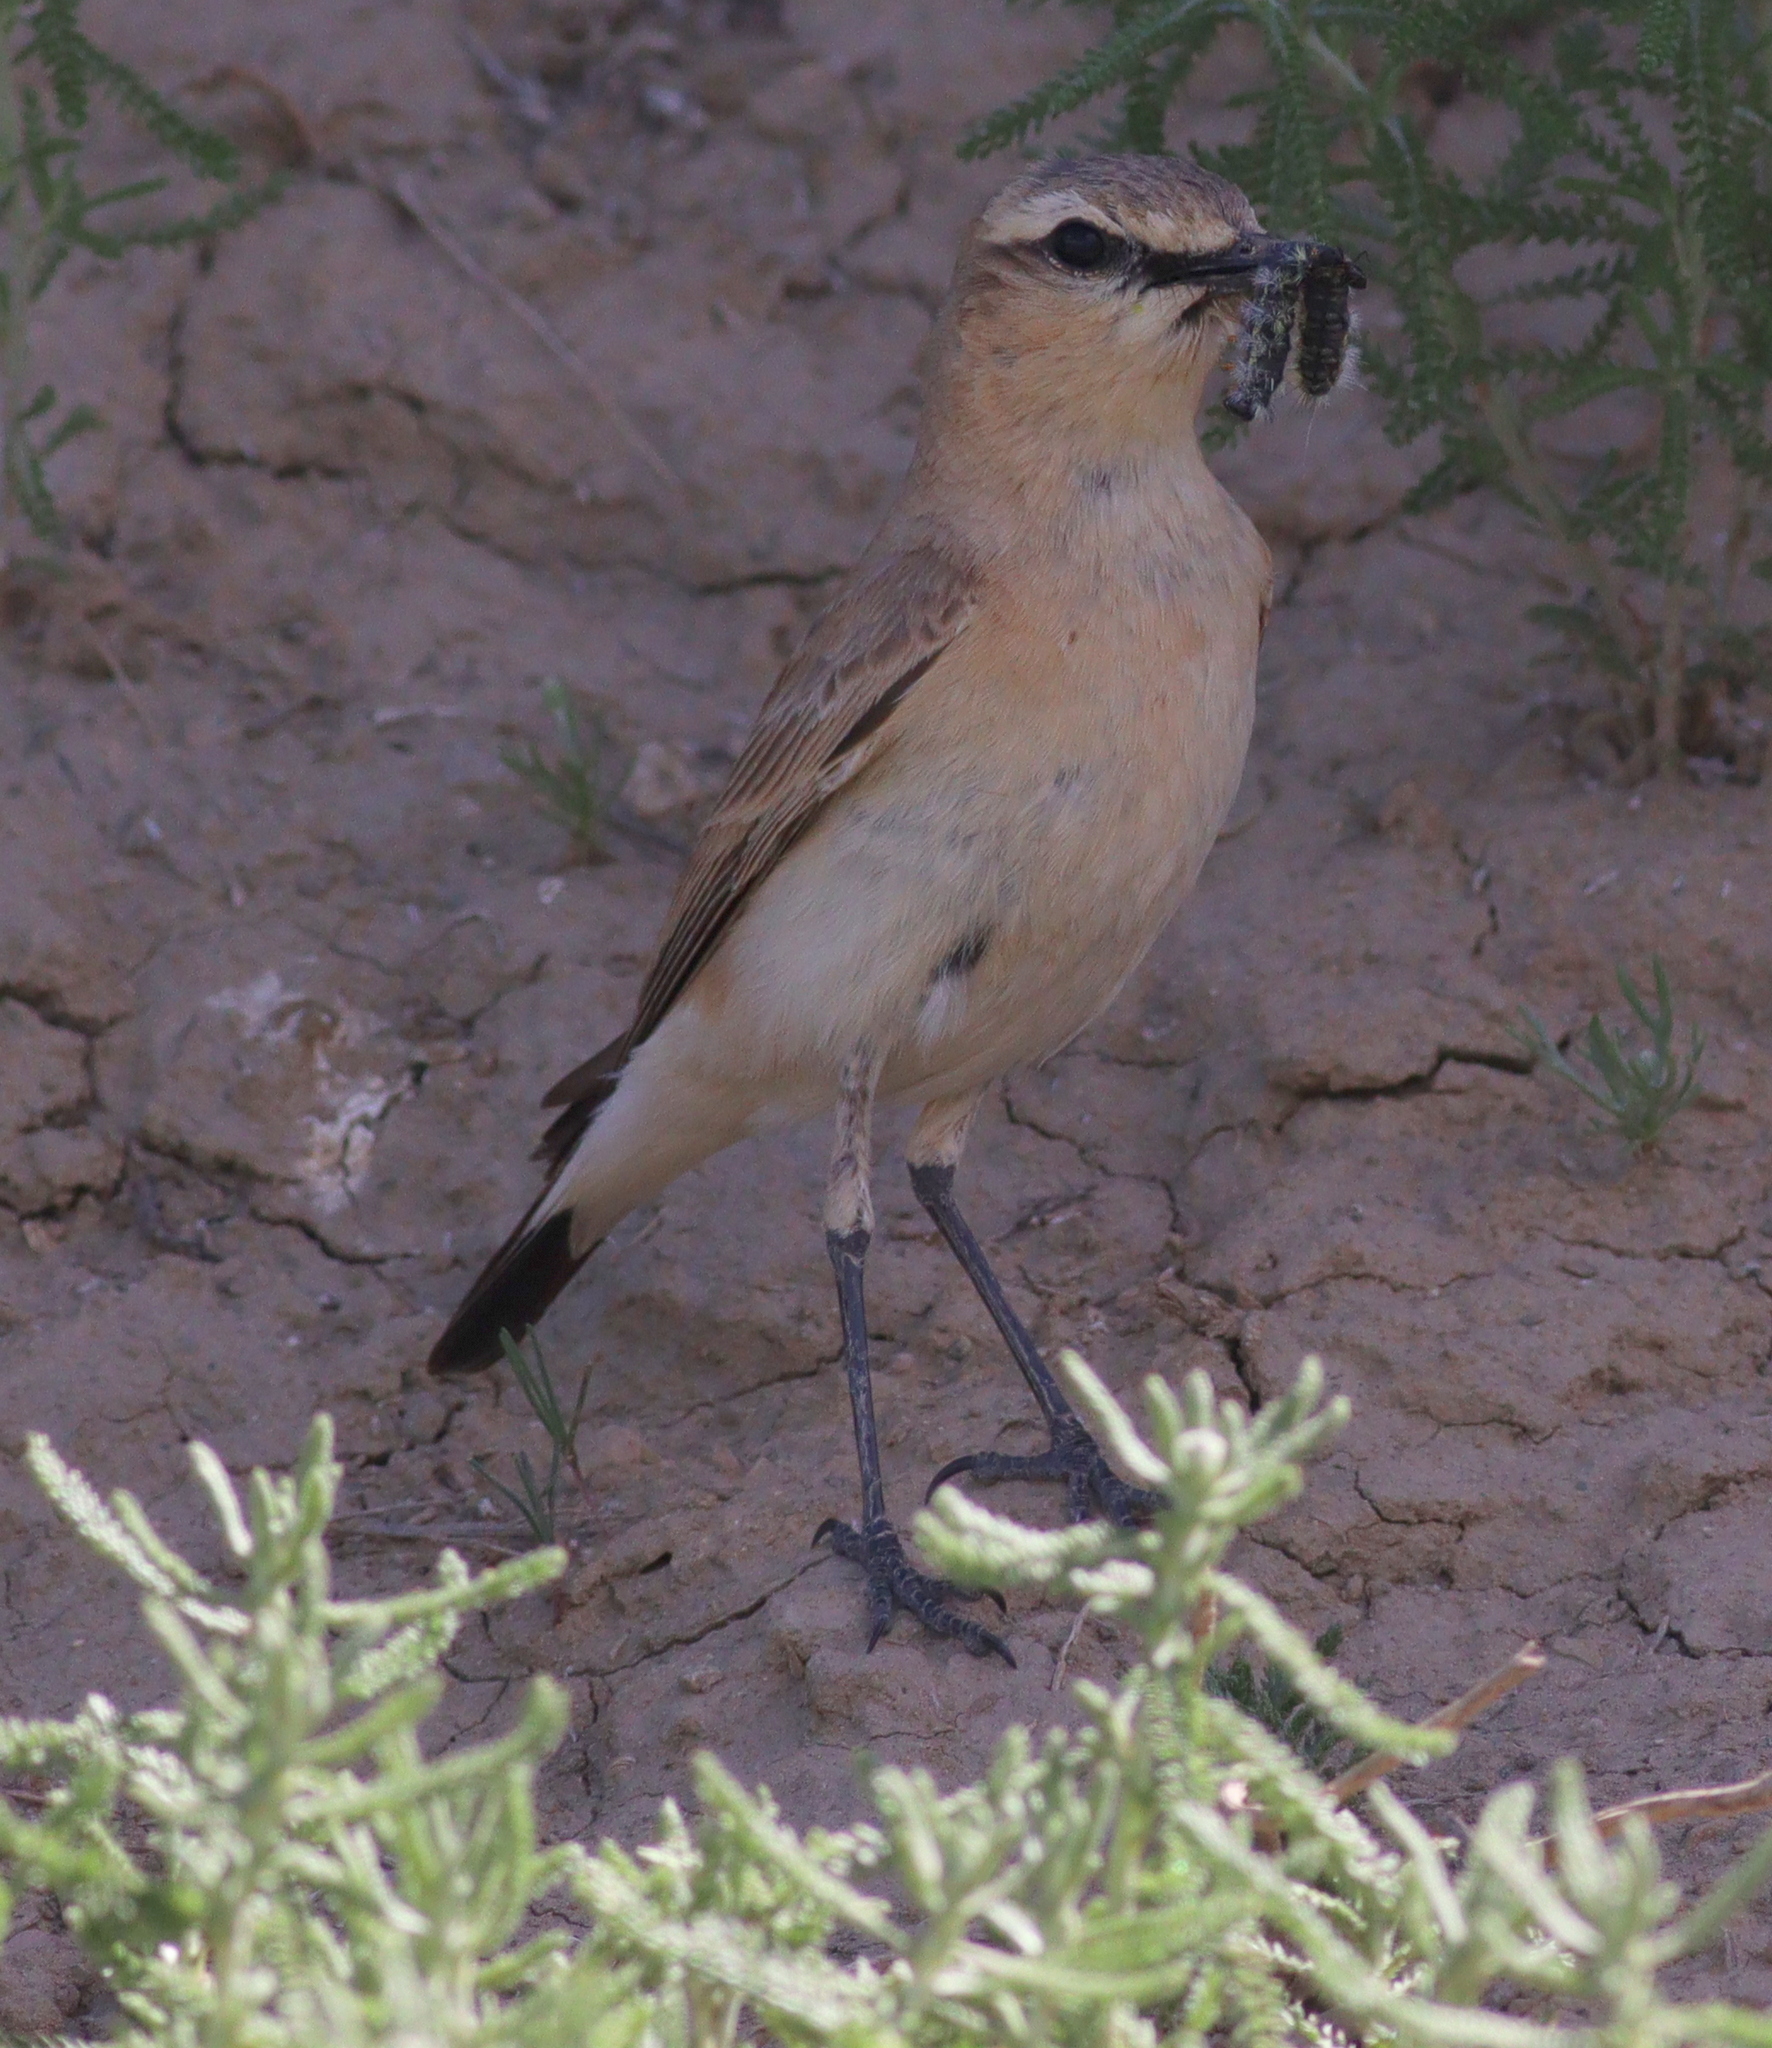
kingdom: Animalia
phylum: Chordata
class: Aves
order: Passeriformes
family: Muscicapidae
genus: Oenanthe
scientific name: Oenanthe isabellina
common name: Isabelline wheatear
